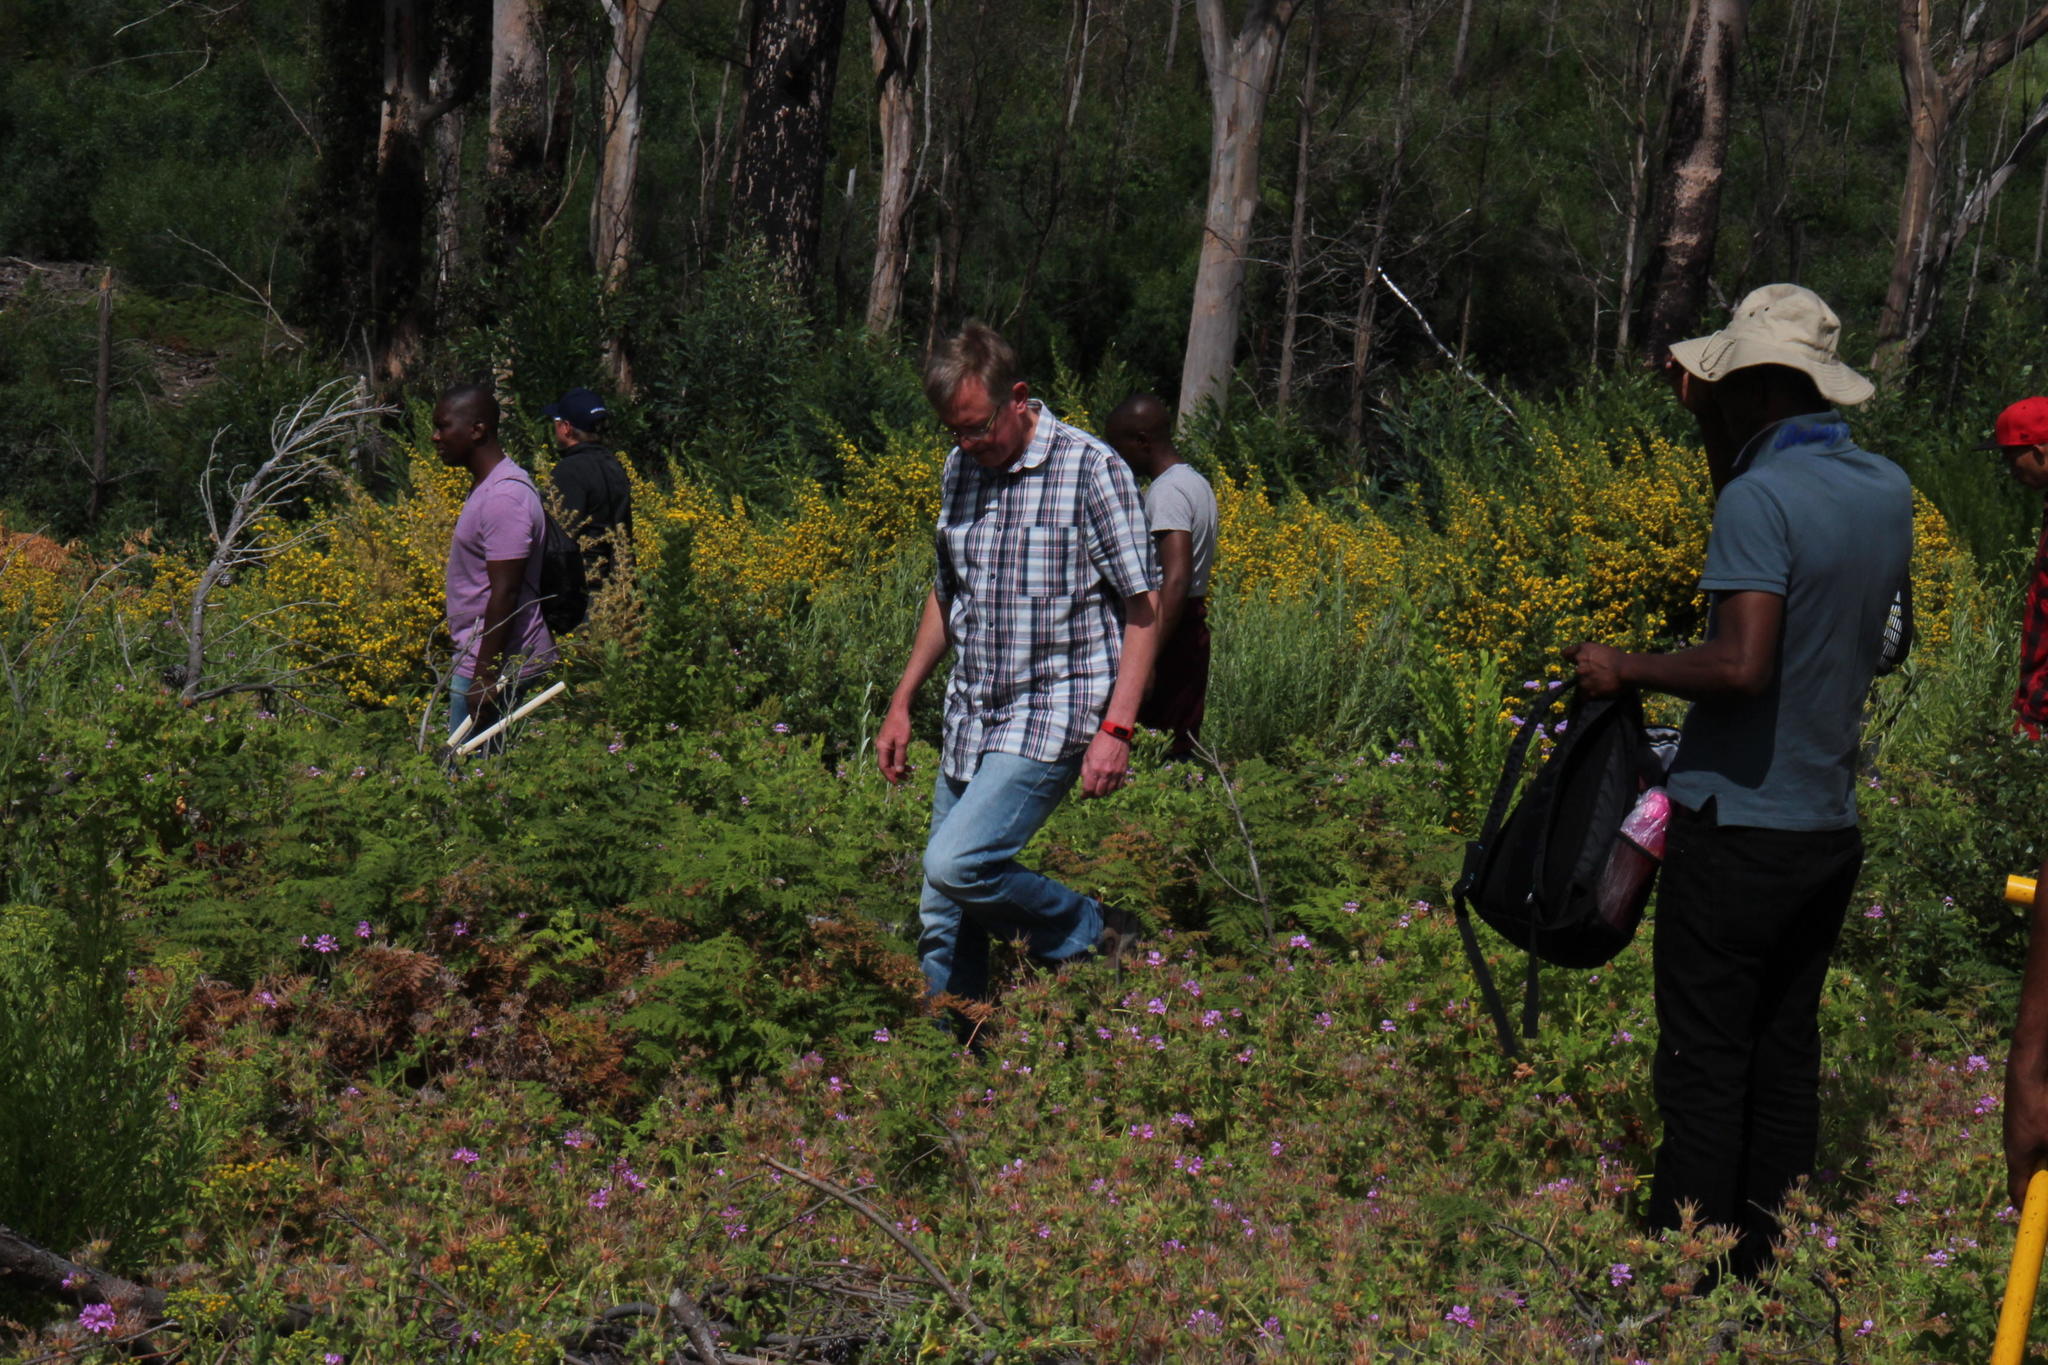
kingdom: Plantae
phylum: Tracheophyta
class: Magnoliopsida
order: Fabales
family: Fabaceae
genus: Aspalathus
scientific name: Aspalathus astroites
